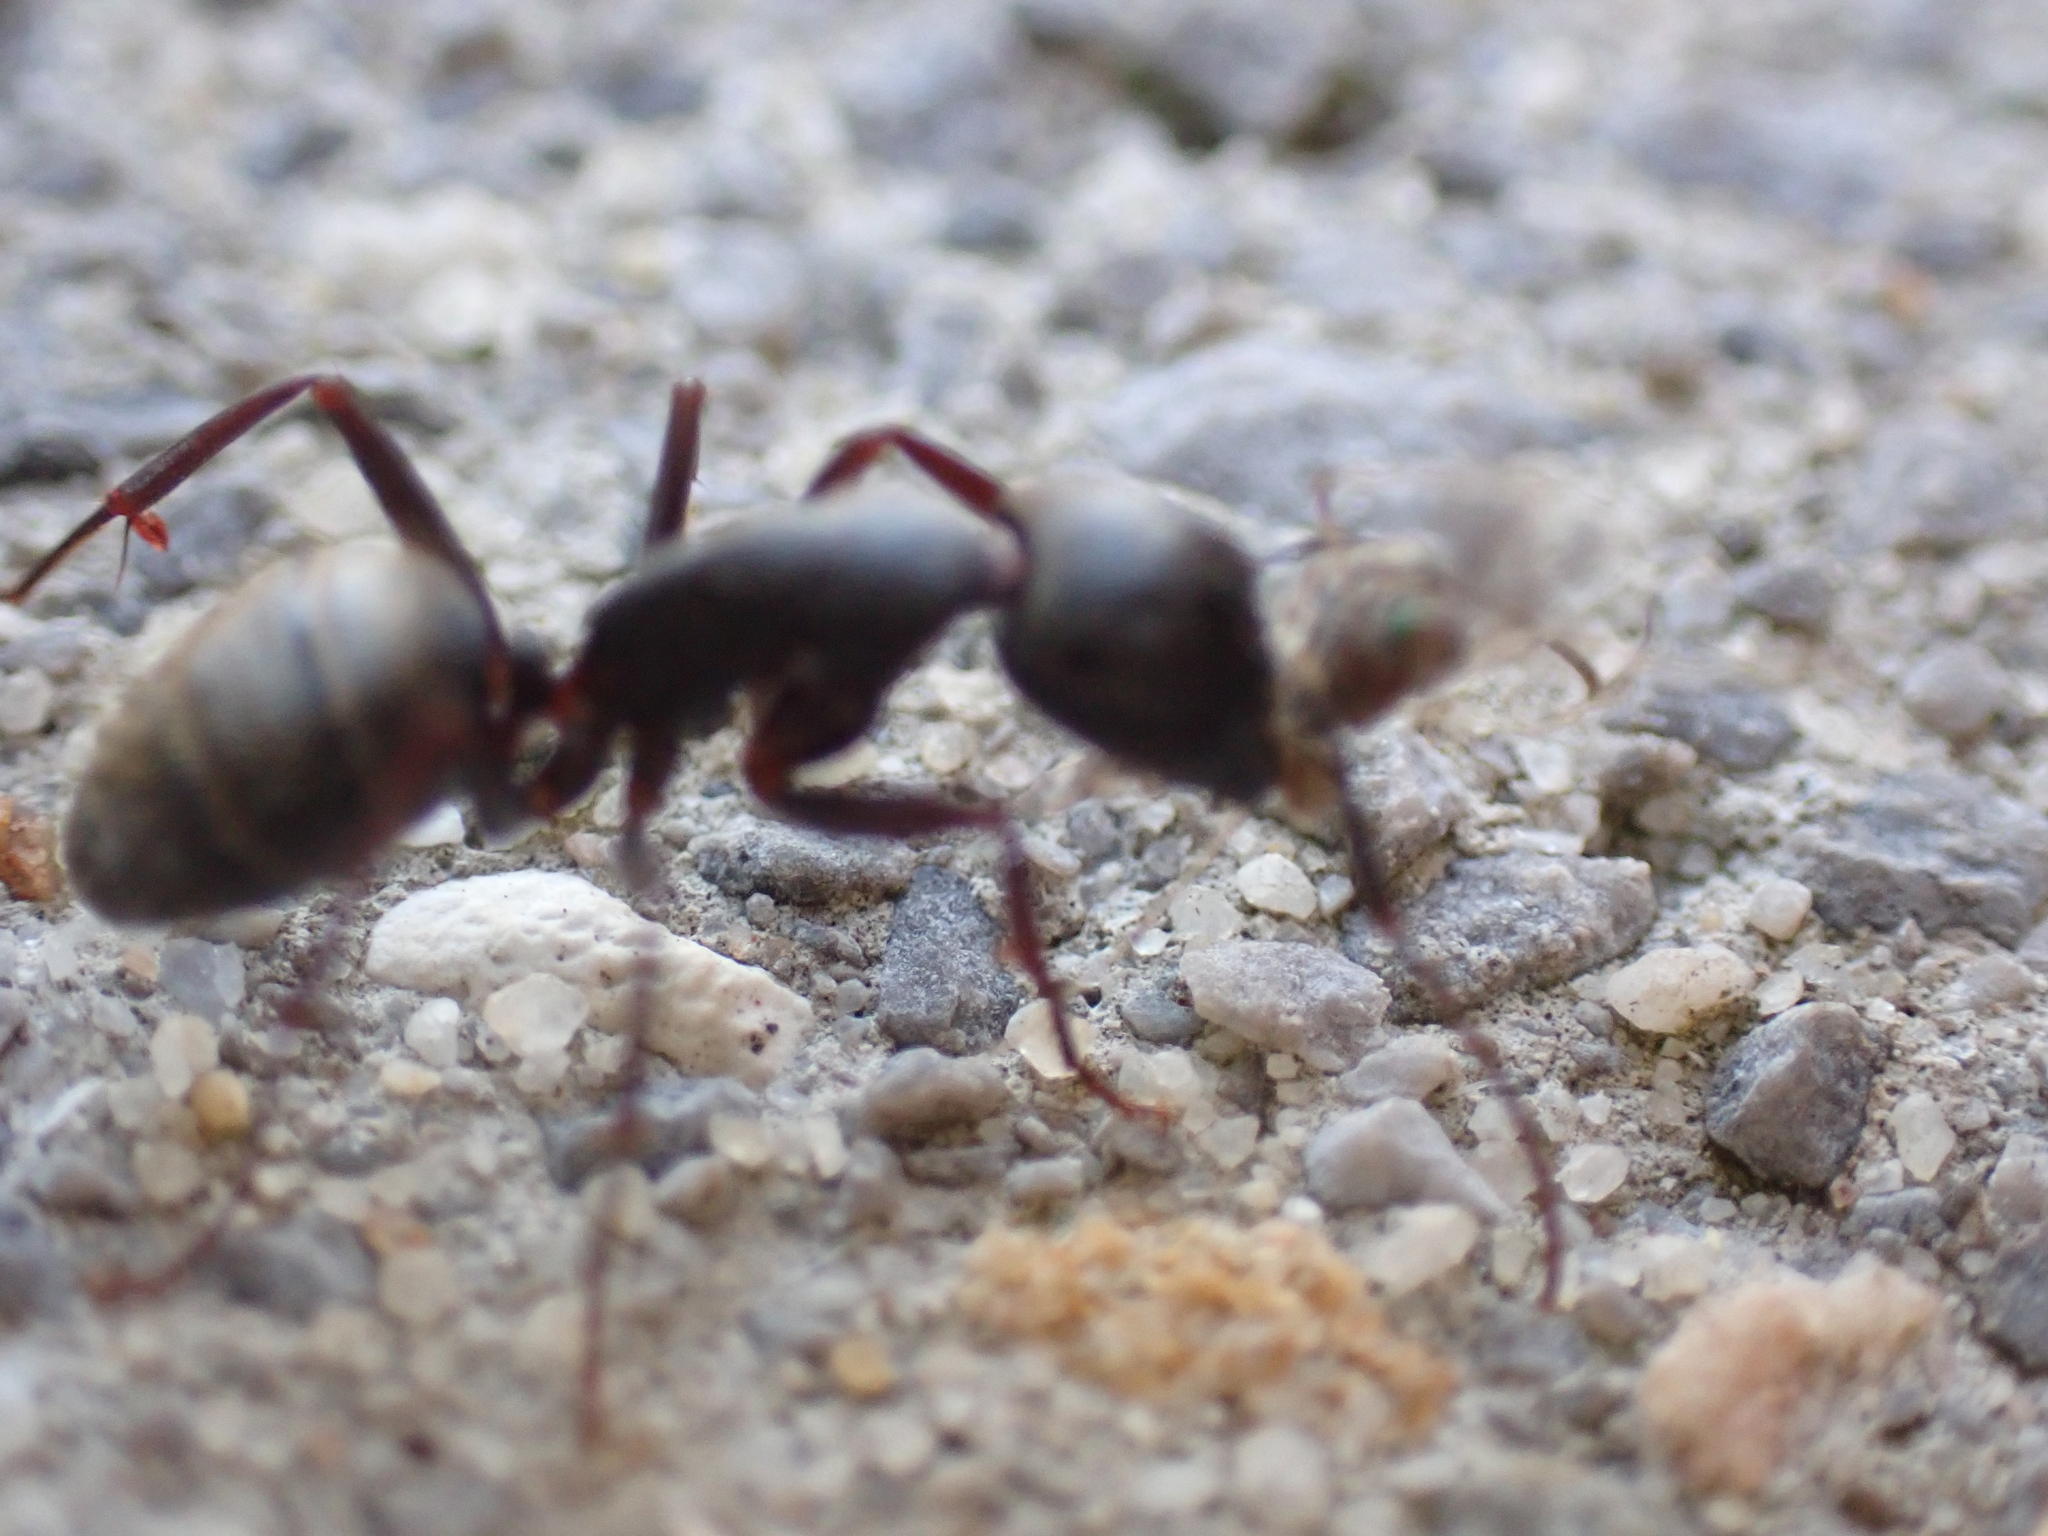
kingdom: Animalia
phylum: Arthropoda
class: Insecta
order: Hymenoptera
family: Formicidae
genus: Camponotus
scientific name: Camponotus pennsylvanicus
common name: Black carpenter ant
